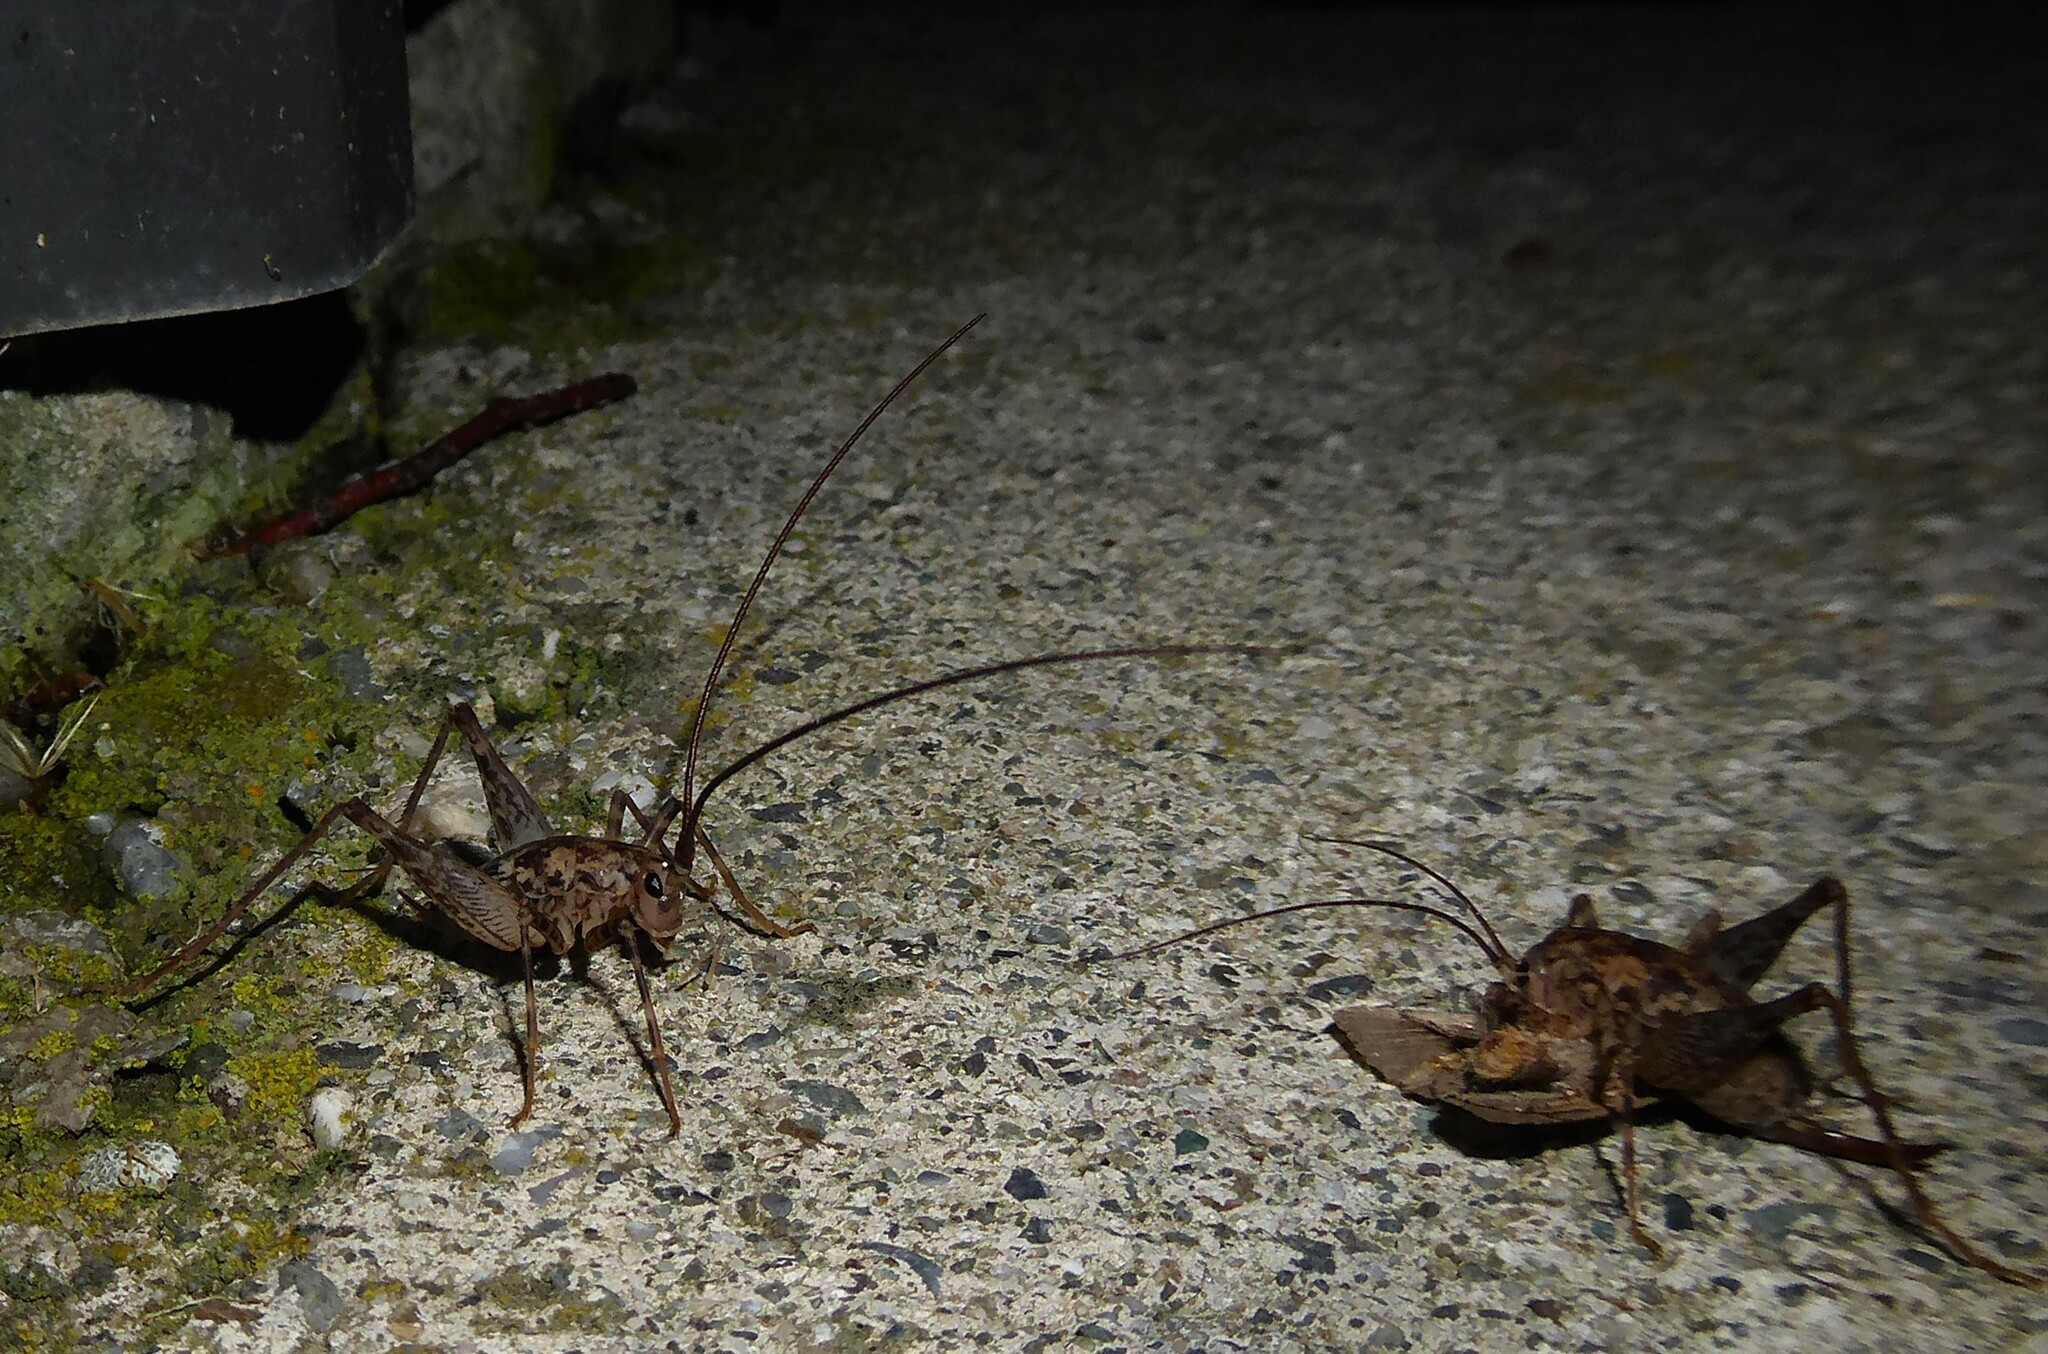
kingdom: Animalia
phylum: Arthropoda
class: Insecta
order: Orthoptera
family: Rhaphidophoridae
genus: Pleioplectron
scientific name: Pleioplectron simplex
